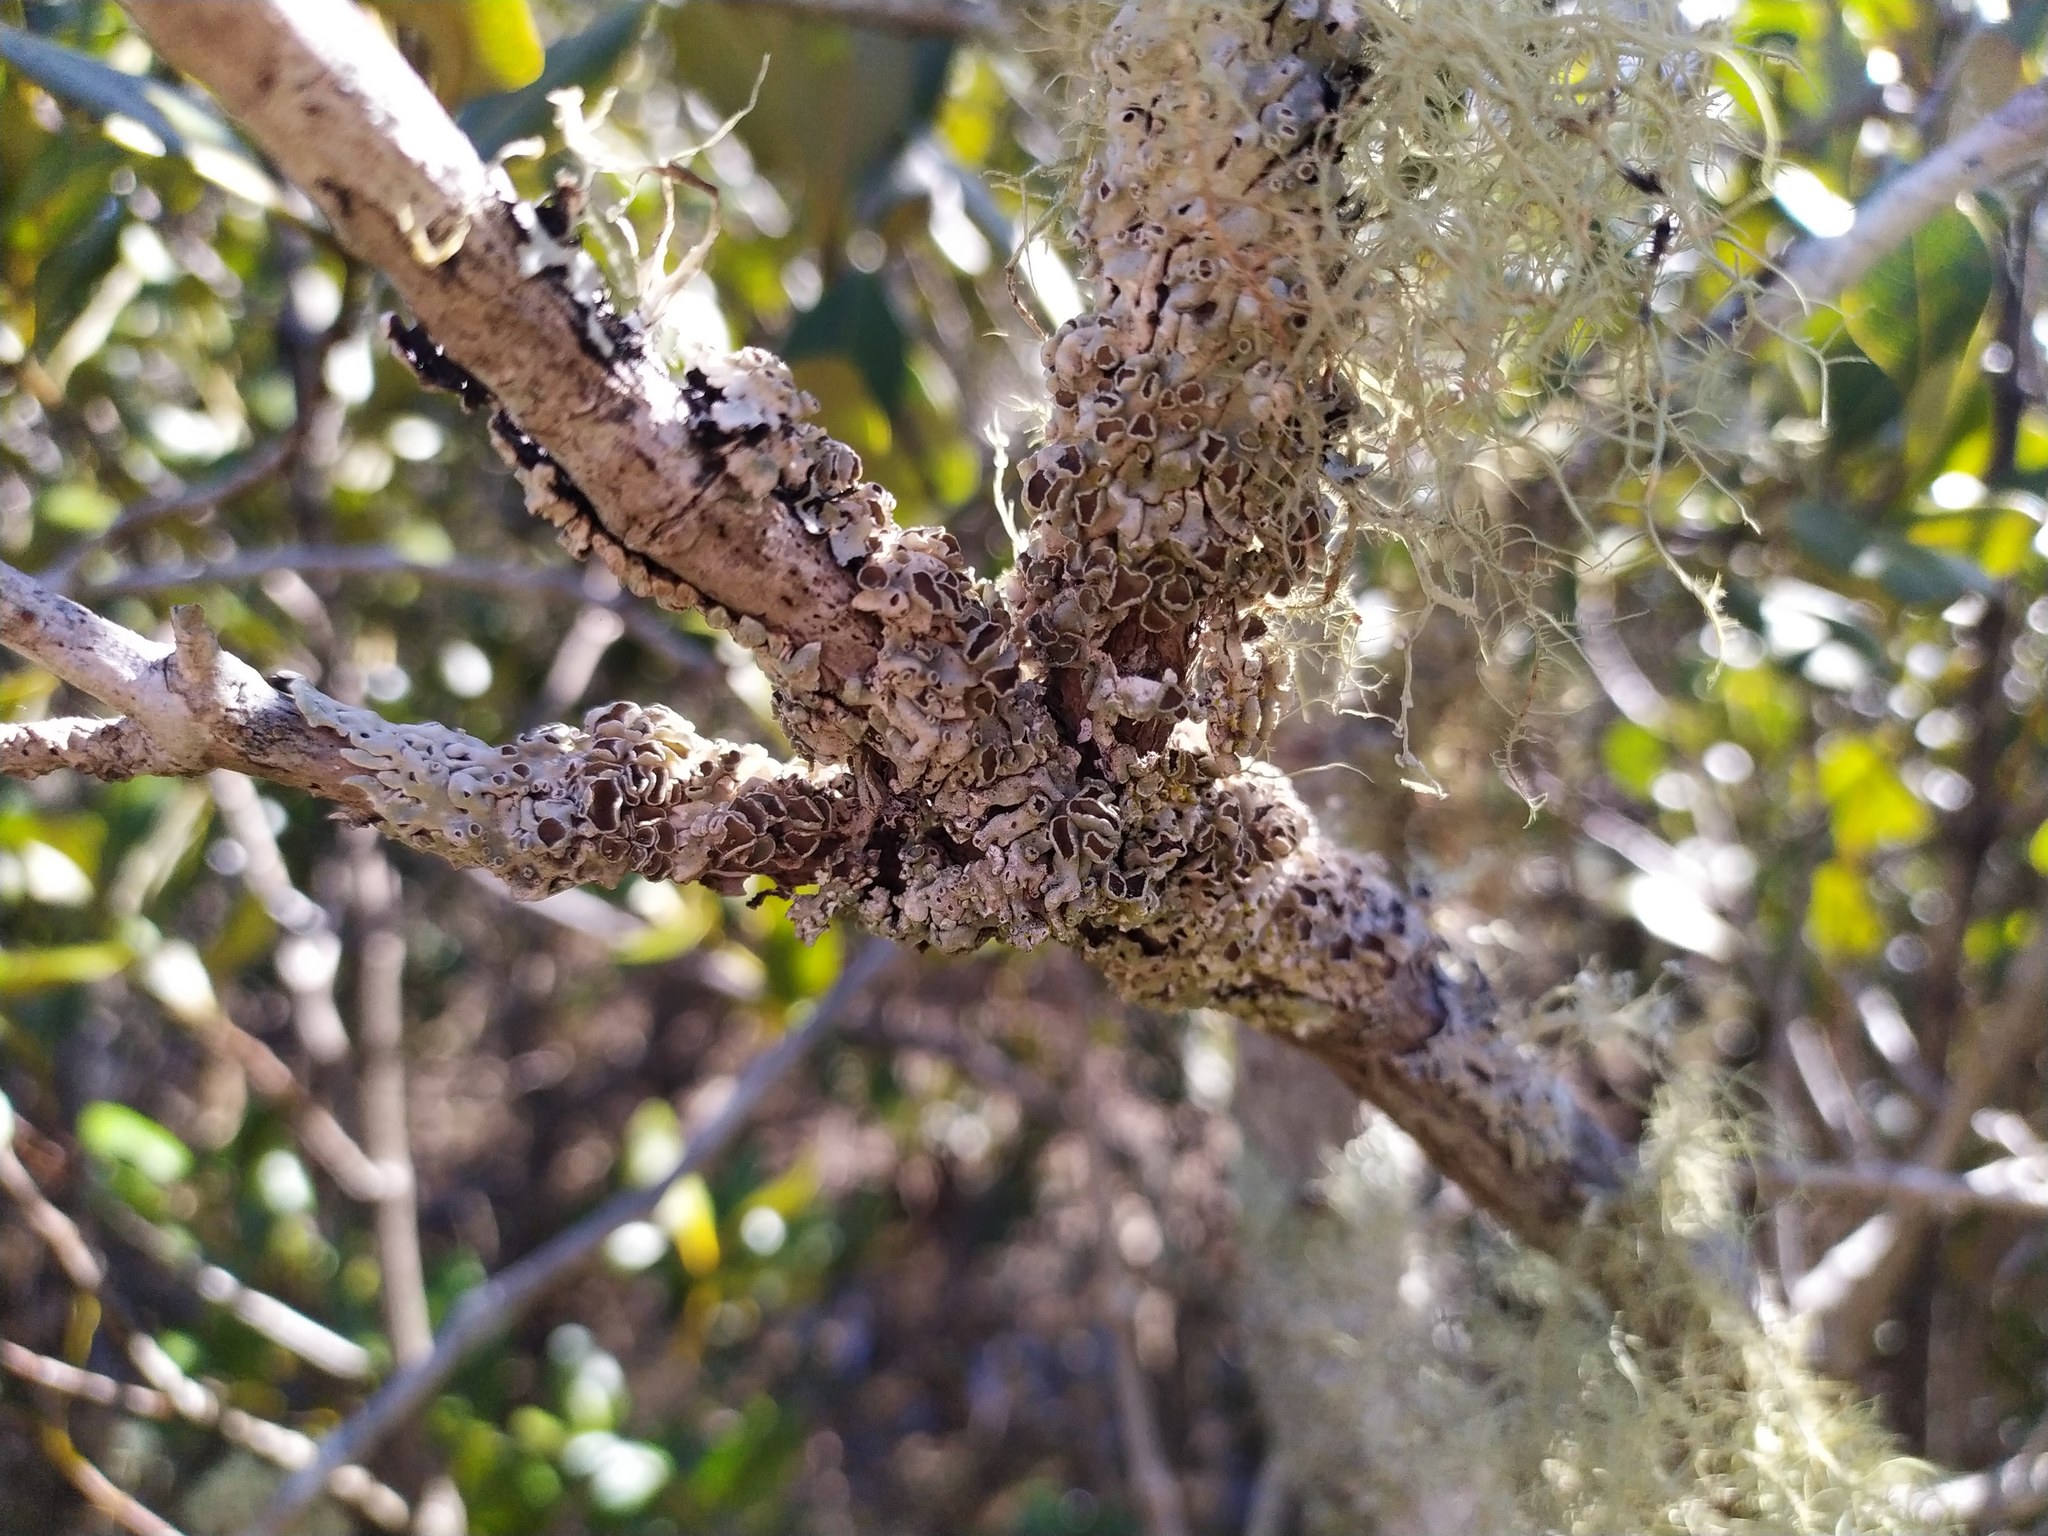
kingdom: Fungi
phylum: Ascomycota
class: Lecanoromycetes
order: Lecanorales
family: Parmeliaceae
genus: Menegazzia
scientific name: Menegazzia aucklandica
